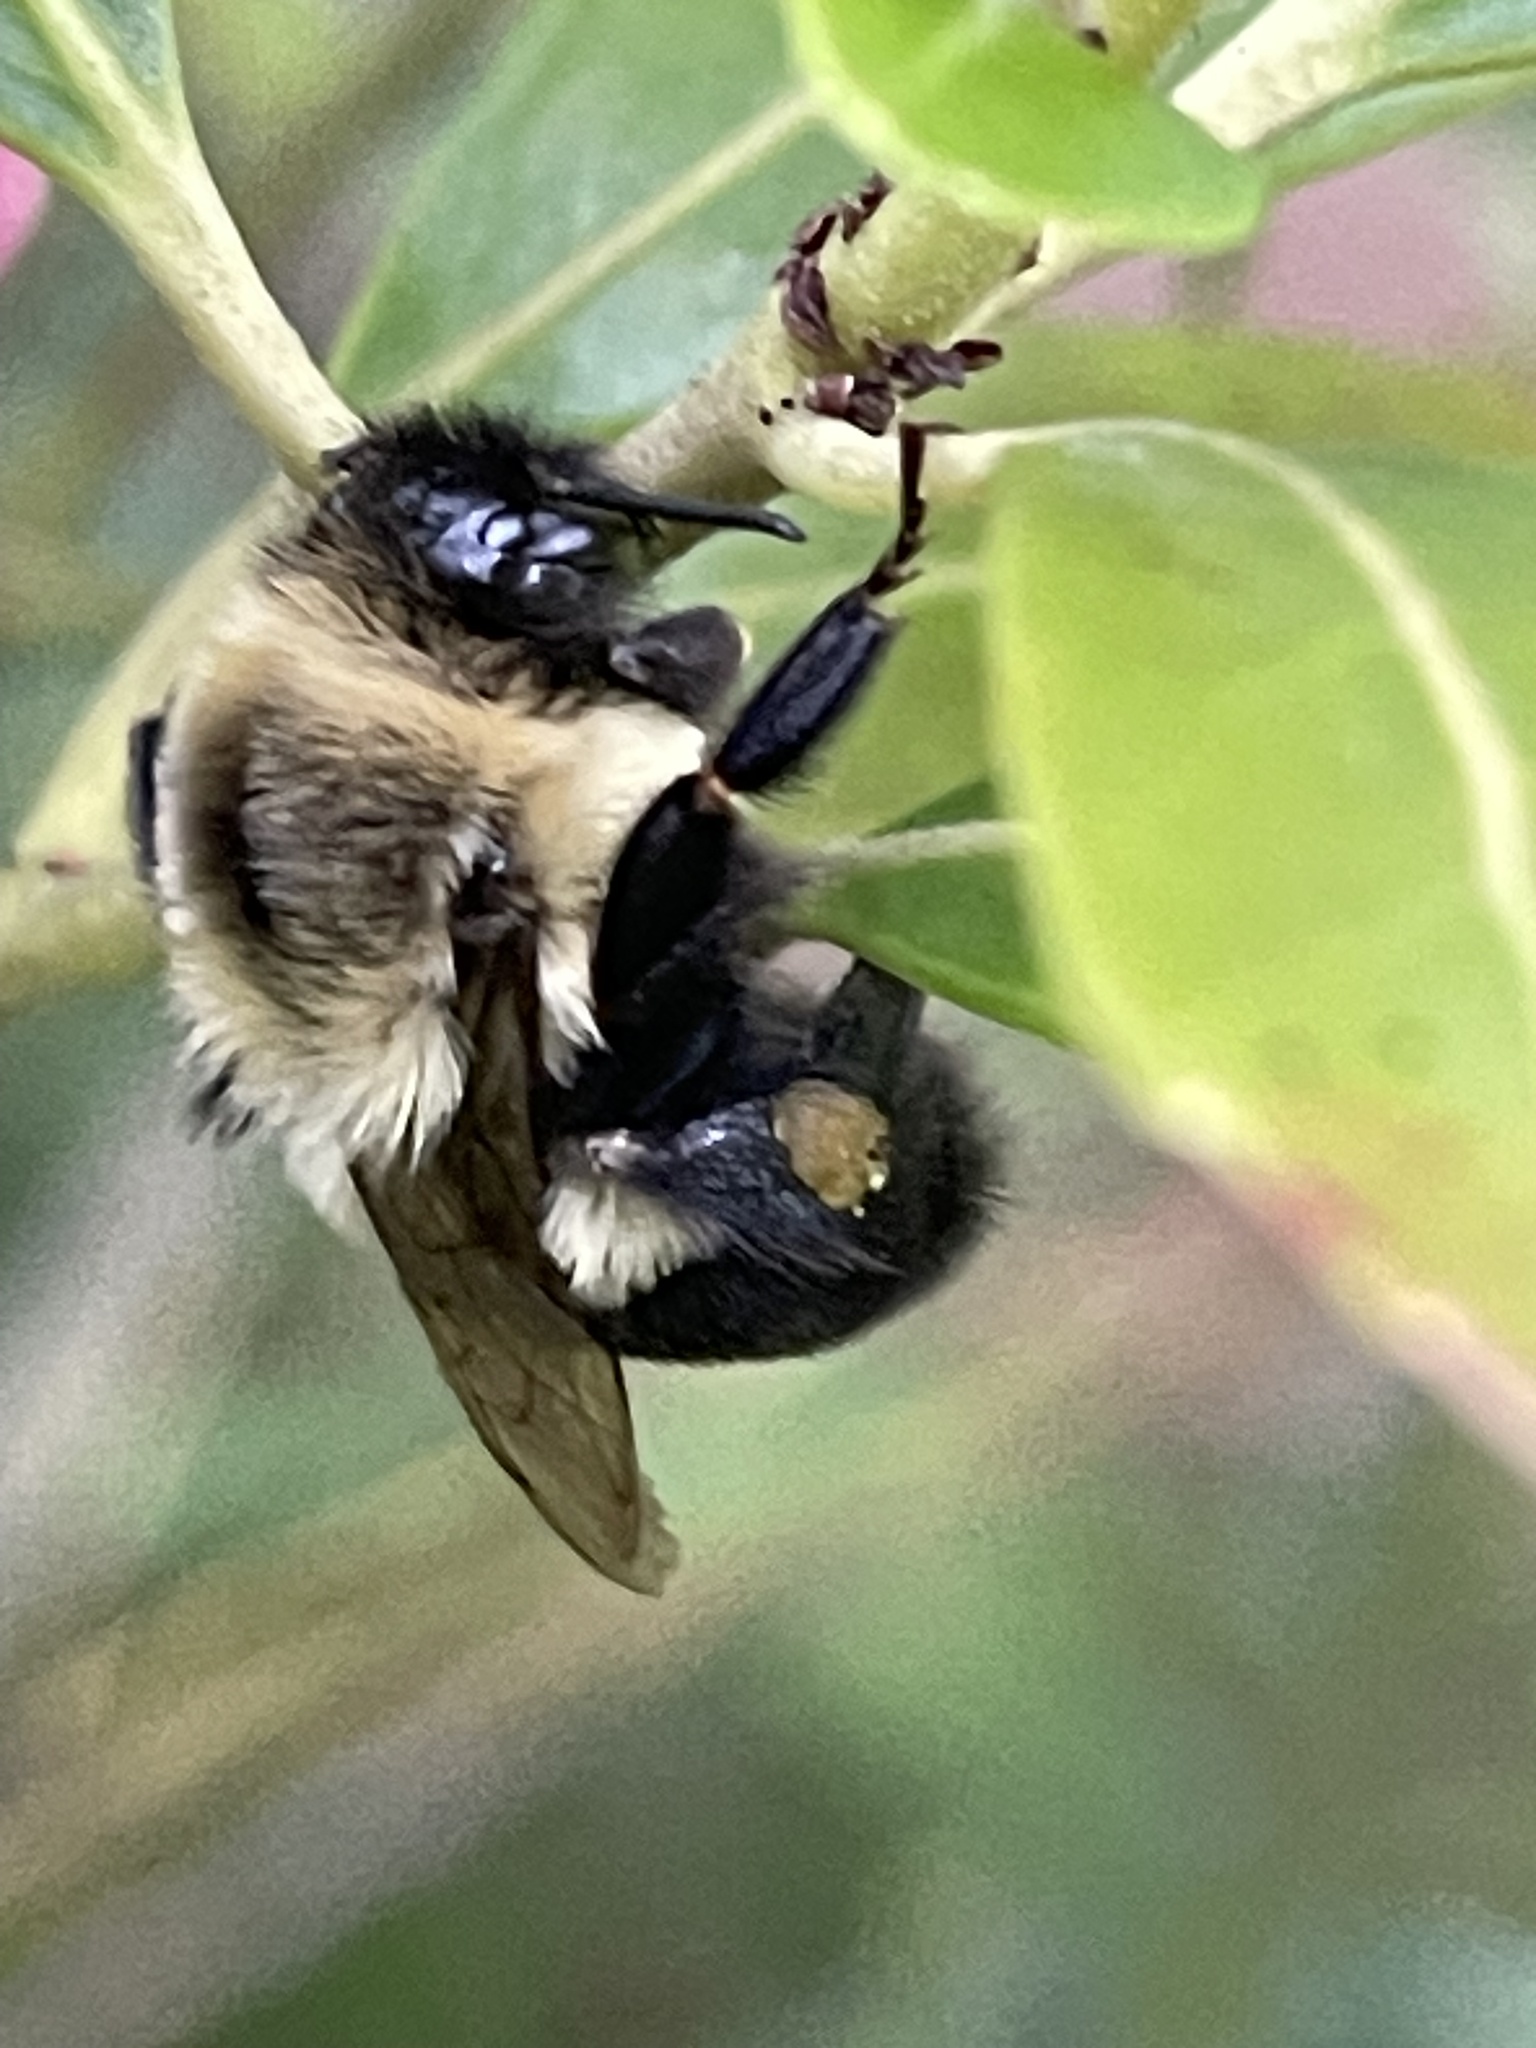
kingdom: Animalia
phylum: Arthropoda
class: Insecta
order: Hymenoptera
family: Apidae
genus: Bombus
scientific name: Bombus impatiens
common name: Common eastern bumble bee
